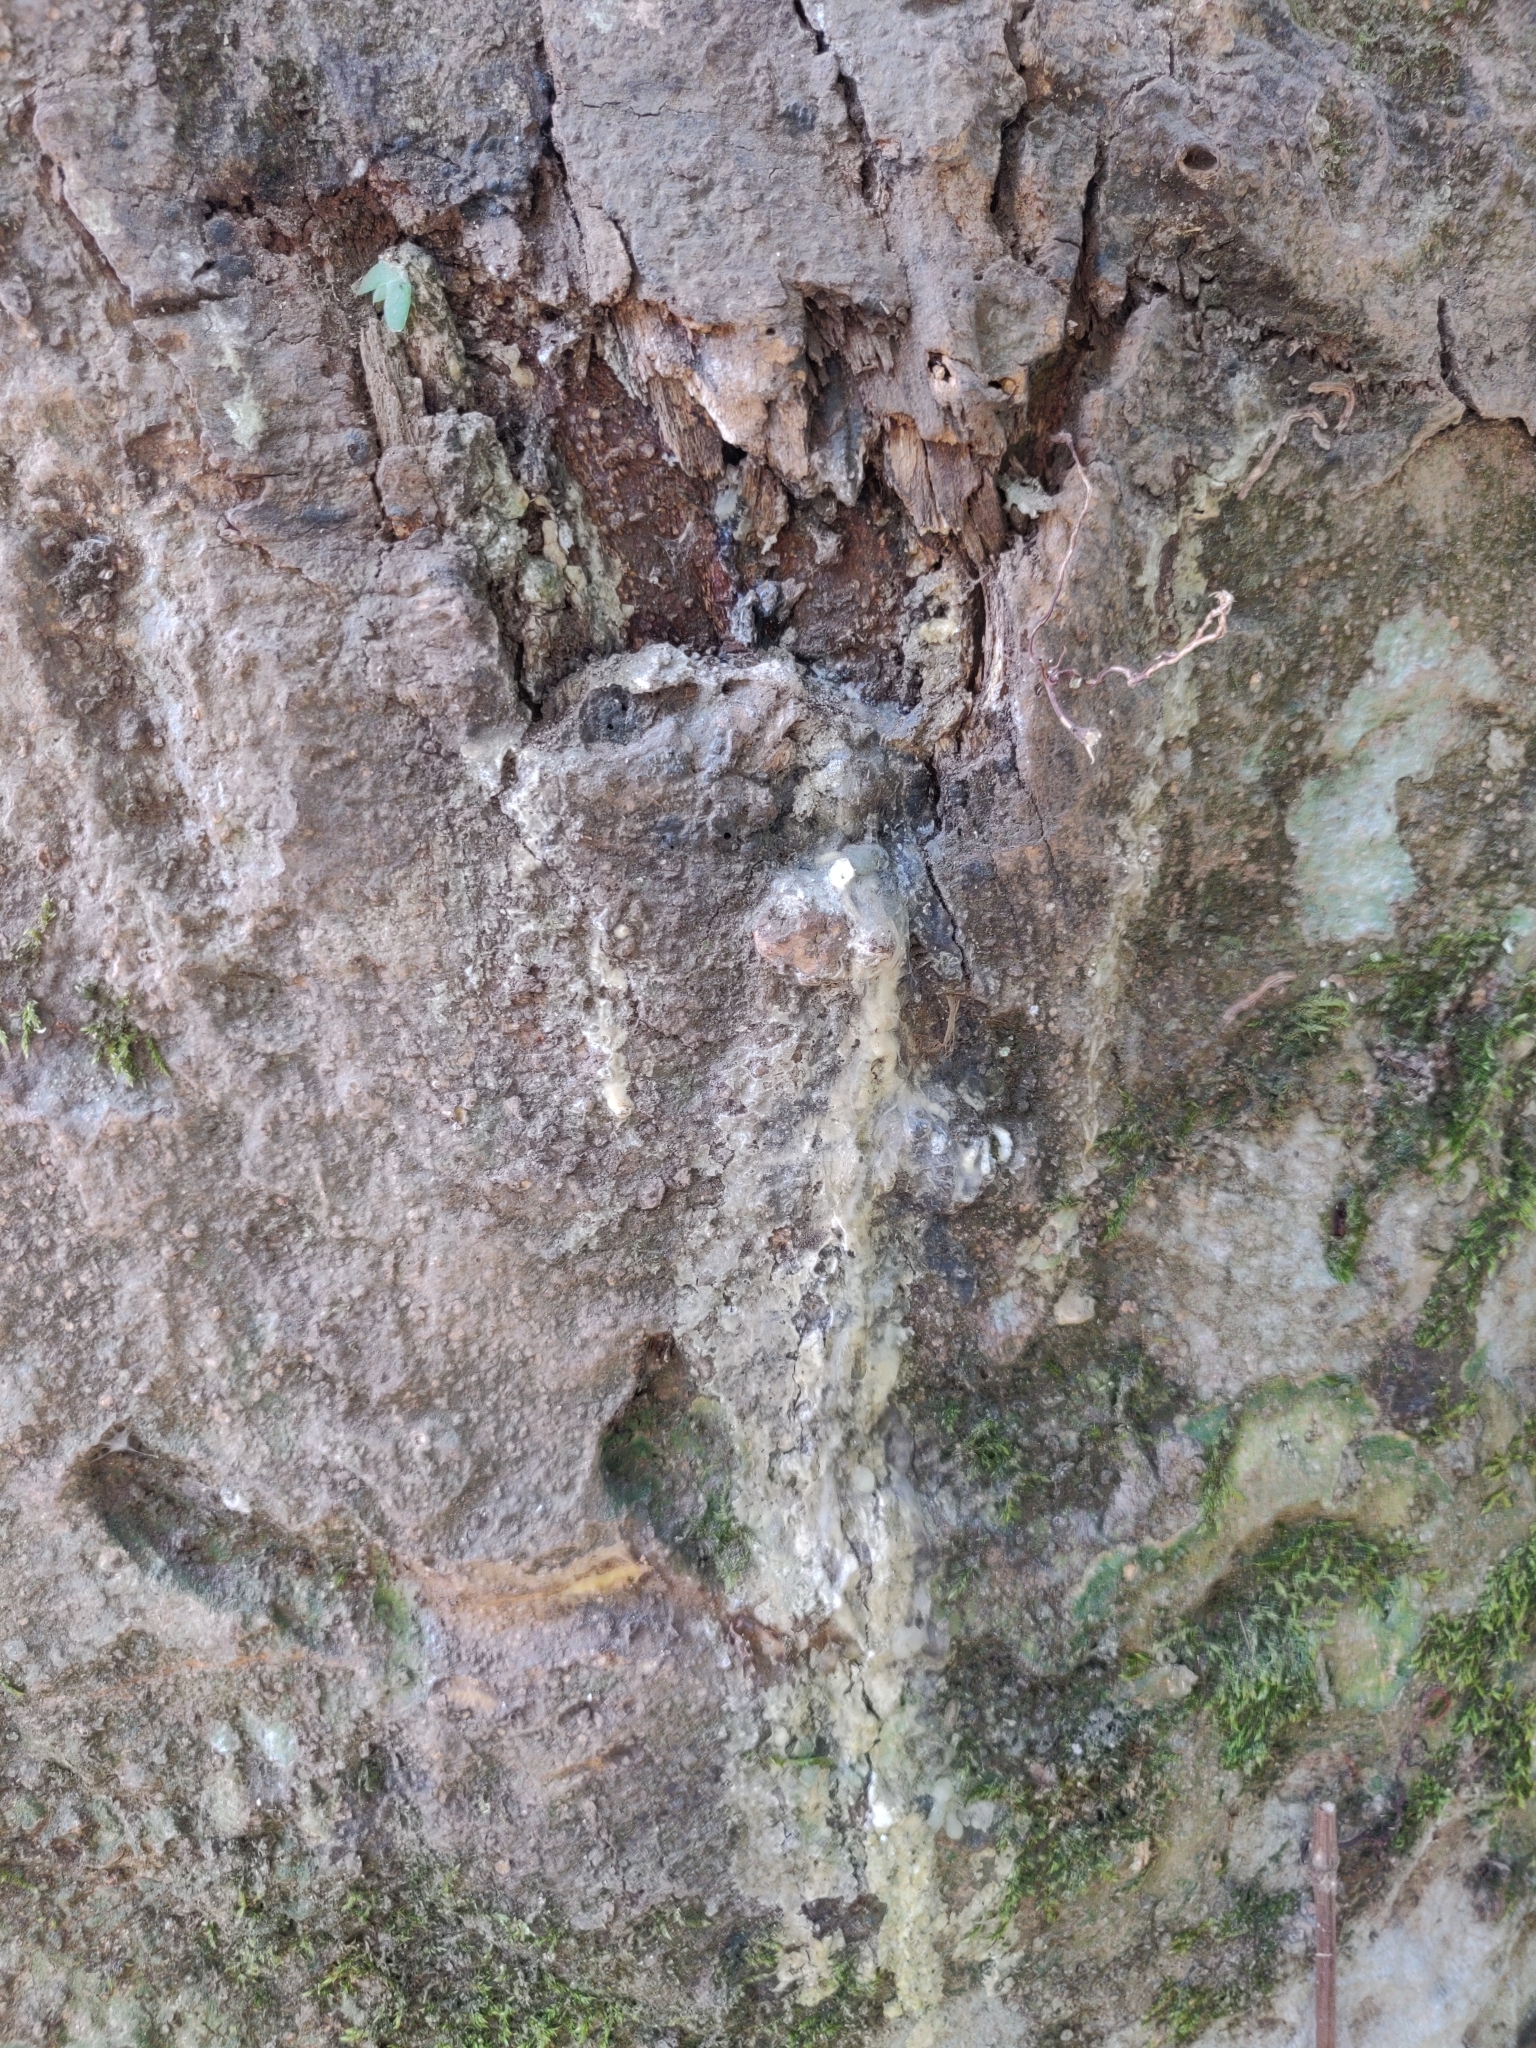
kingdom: Plantae
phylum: Tracheophyta
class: Magnoliopsida
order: Malvales
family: Dipterocarpaceae
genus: Vateria
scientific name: Vateria indica
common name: White dammar
